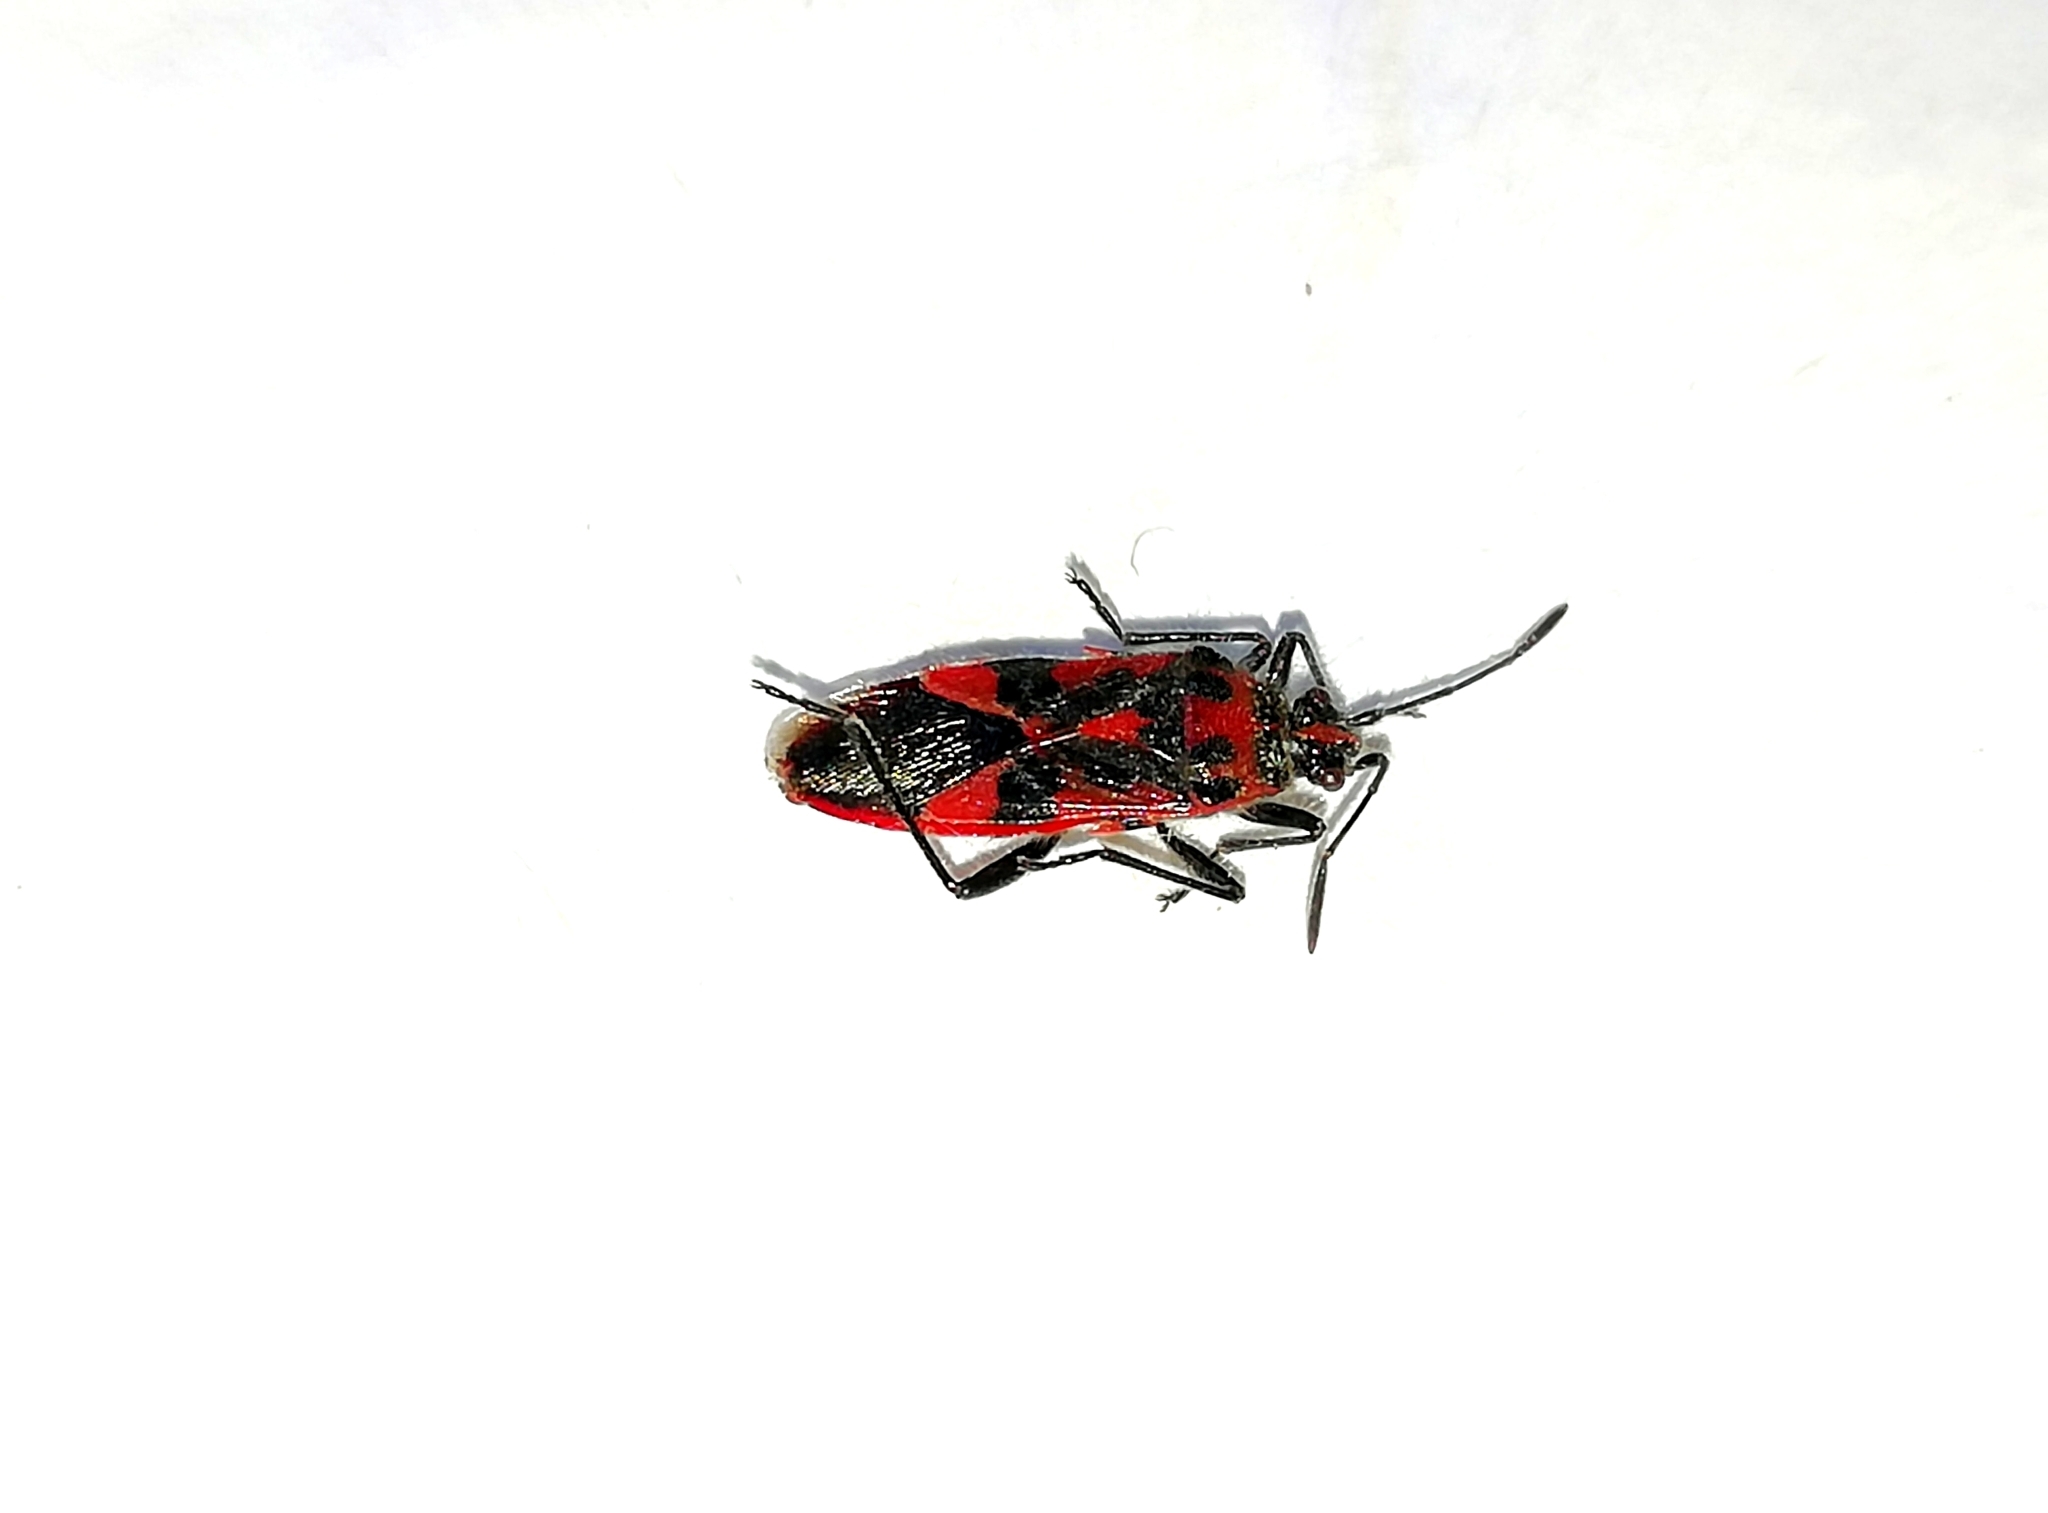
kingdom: Animalia
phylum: Arthropoda
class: Insecta
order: Hemiptera
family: Rhopalidae
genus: Corizus
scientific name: Corizus hyoscyami
